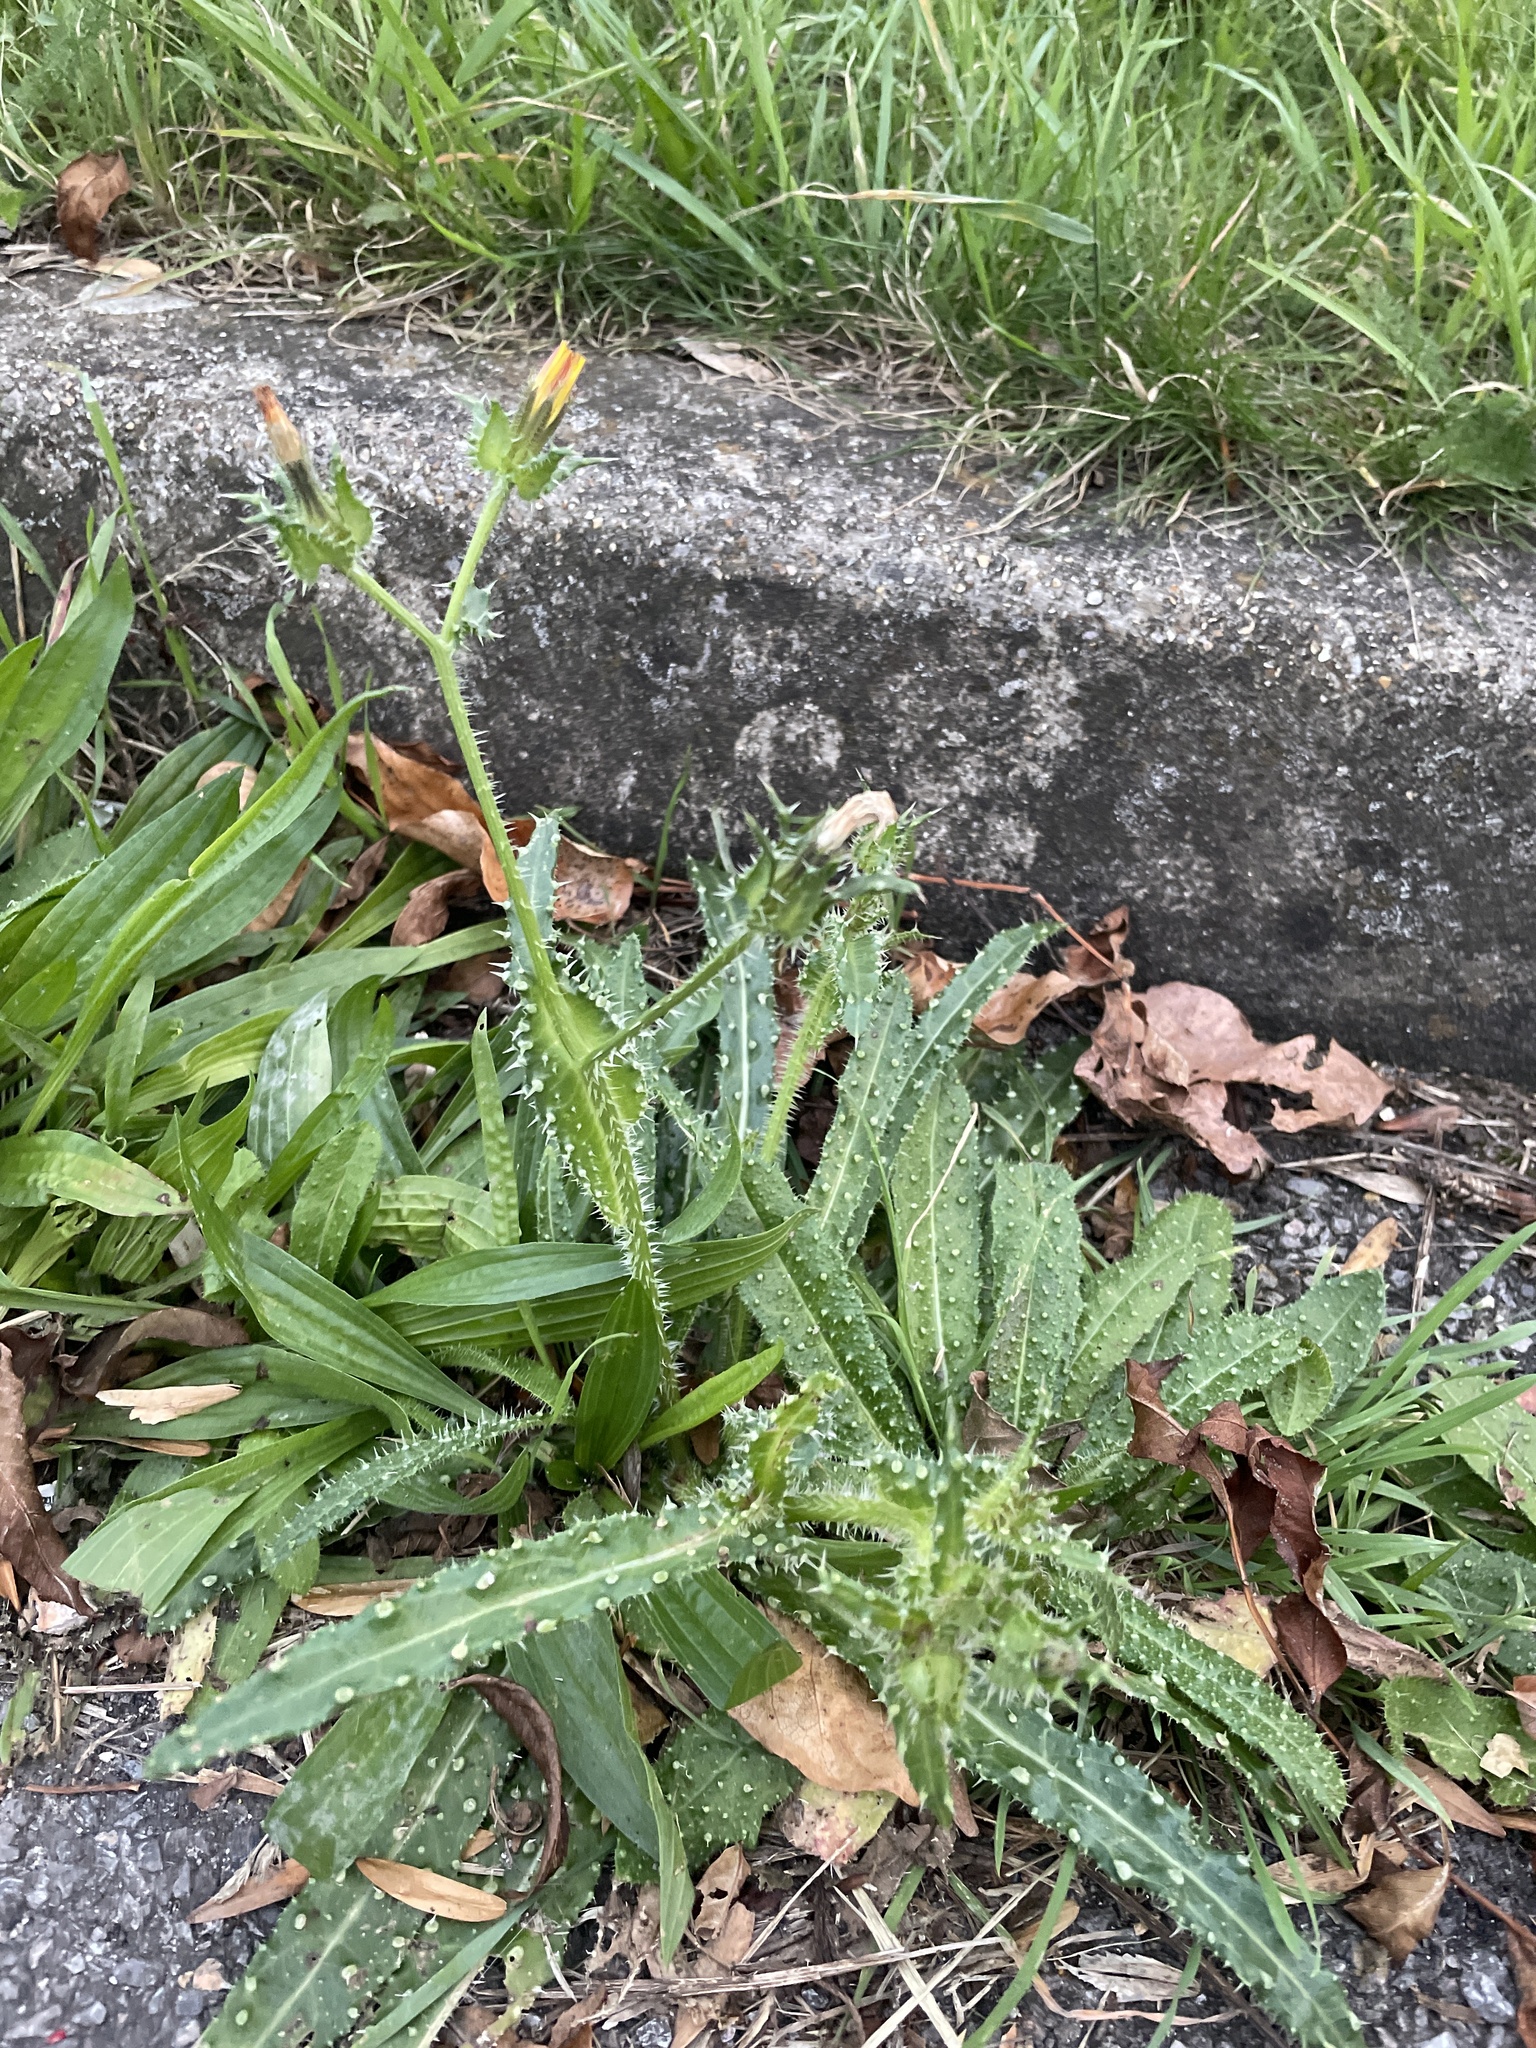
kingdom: Plantae
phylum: Tracheophyta
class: Magnoliopsida
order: Asterales
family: Asteraceae
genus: Helminthotheca
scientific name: Helminthotheca echioides
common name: Ox-tongue
